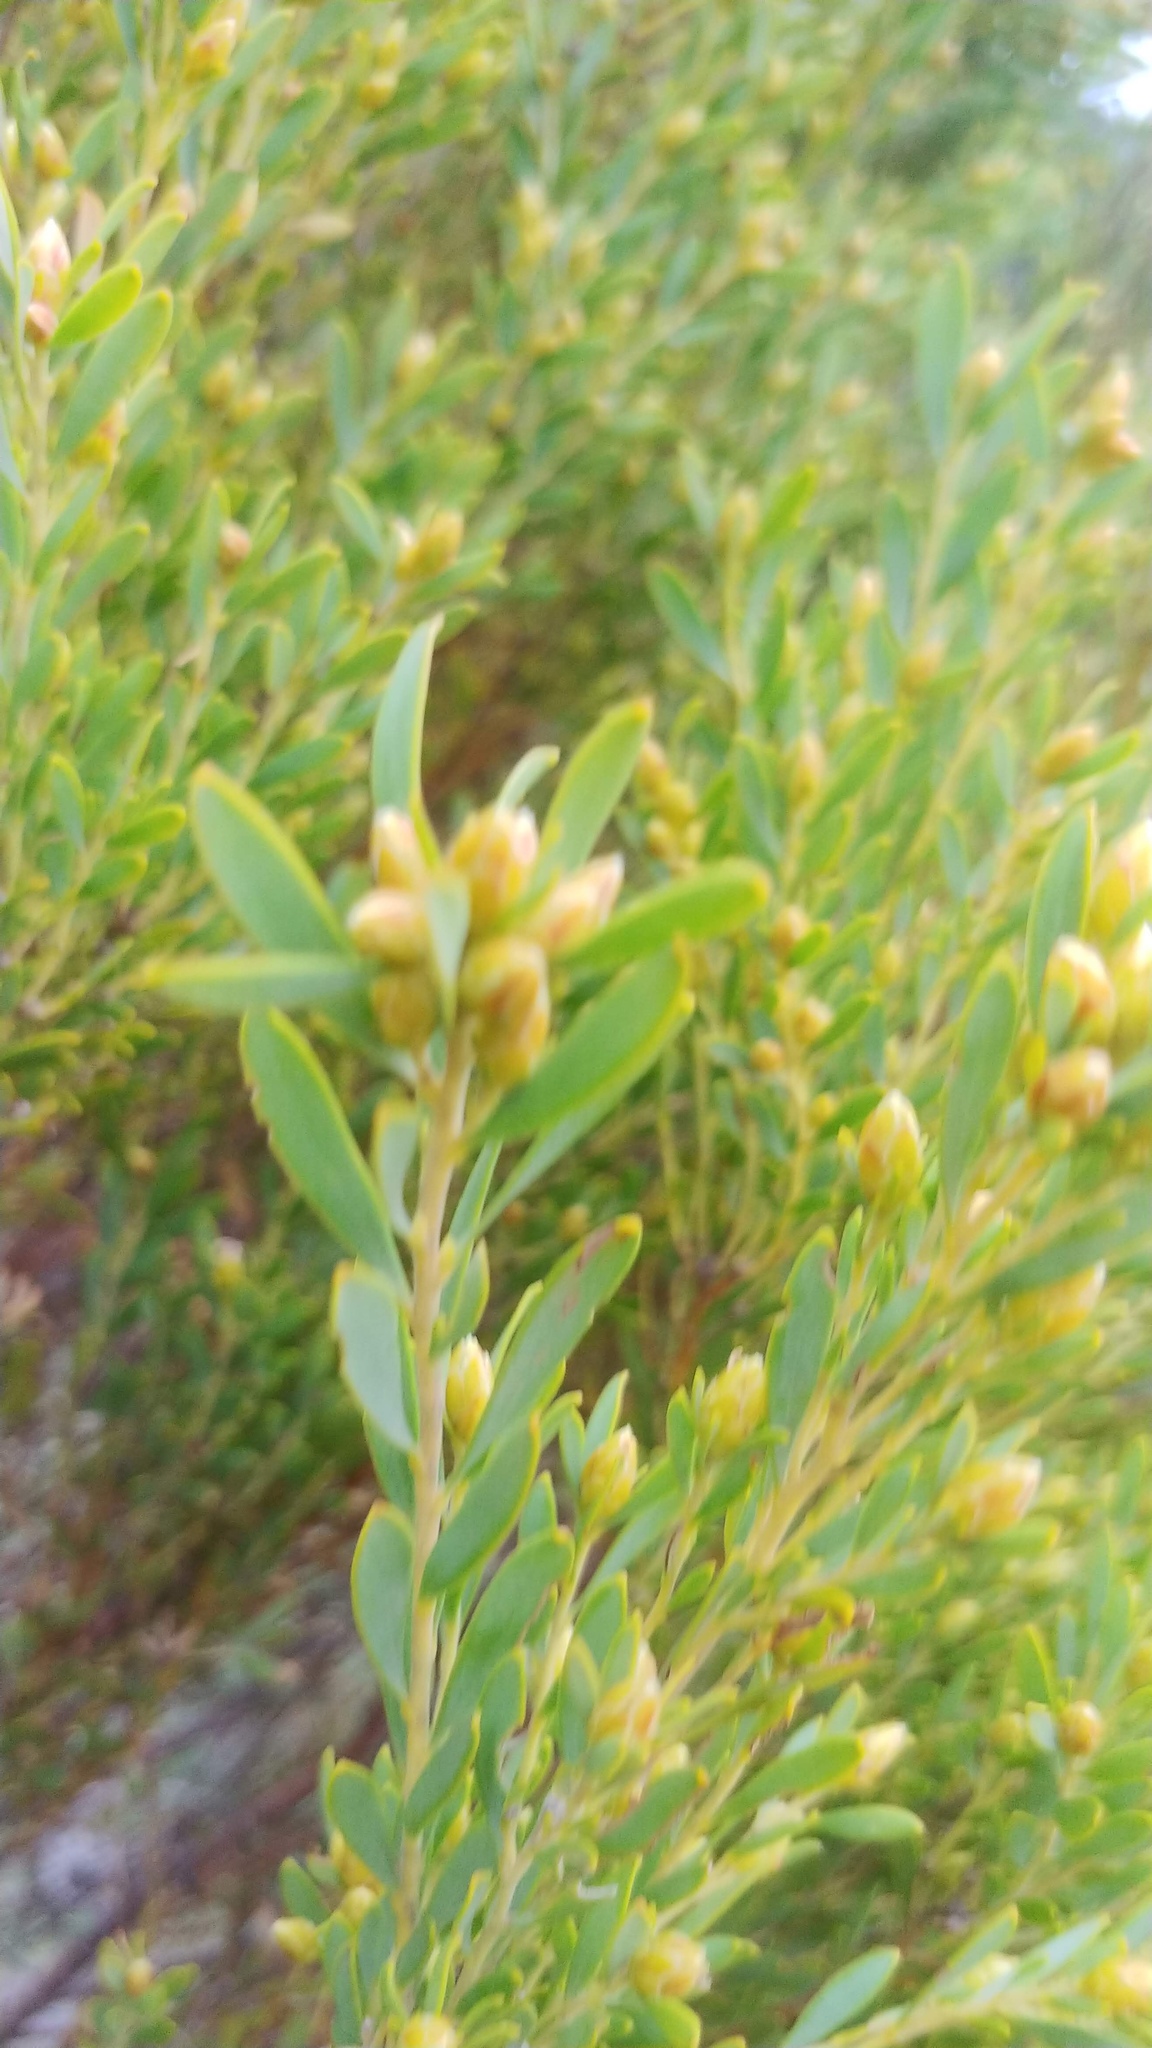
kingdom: Plantae
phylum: Tracheophyta
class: Magnoliopsida
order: Proteales
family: Proteaceae
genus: Leucadendron
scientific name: Leucadendron rubrum
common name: Spinning top
